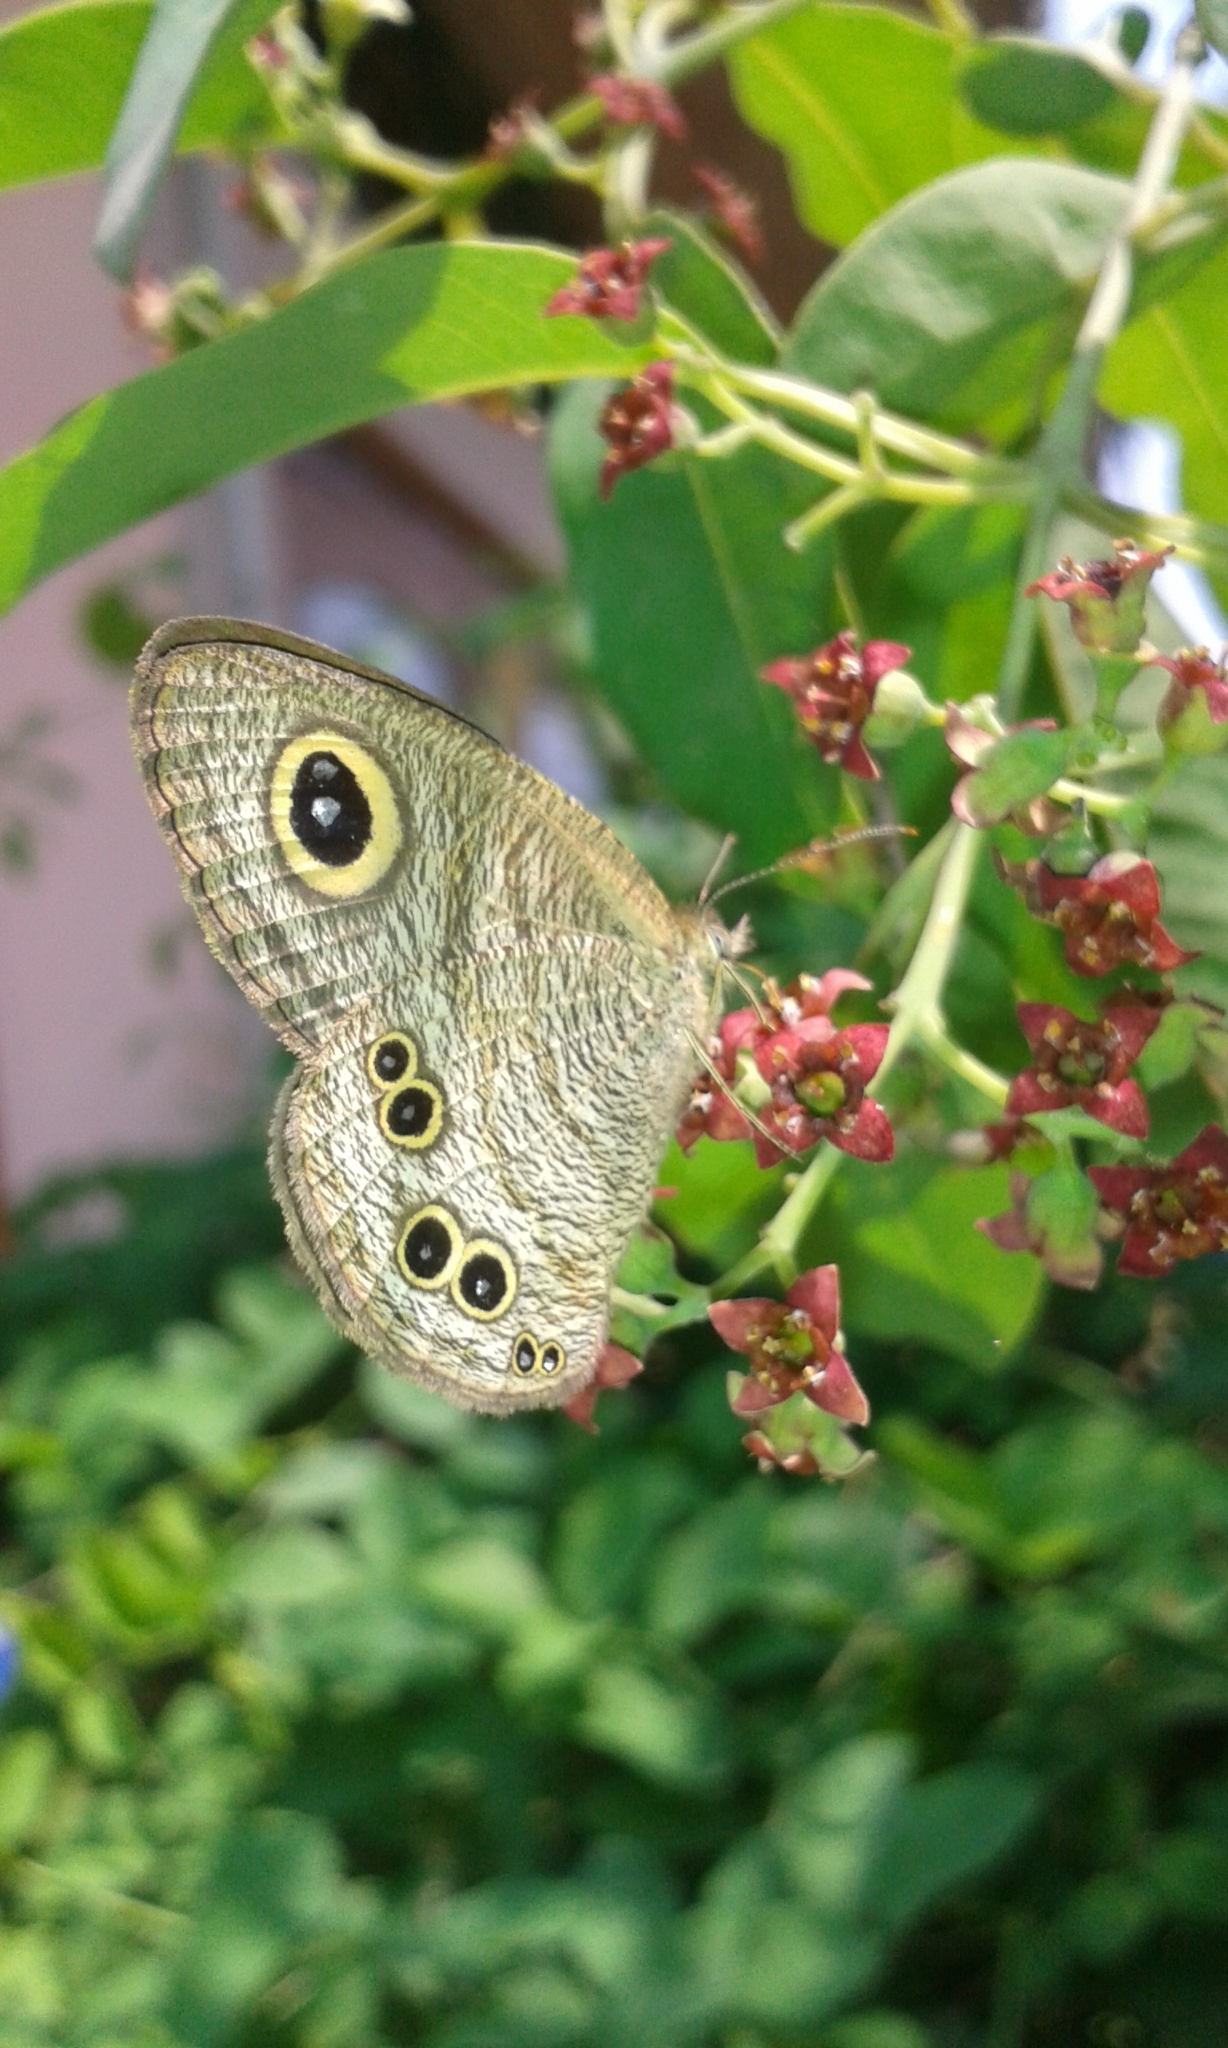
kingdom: Animalia
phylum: Arthropoda
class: Insecta
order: Lepidoptera
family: Nymphalidae
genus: Ypthima
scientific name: Ypthima baldus
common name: Common five-ring
